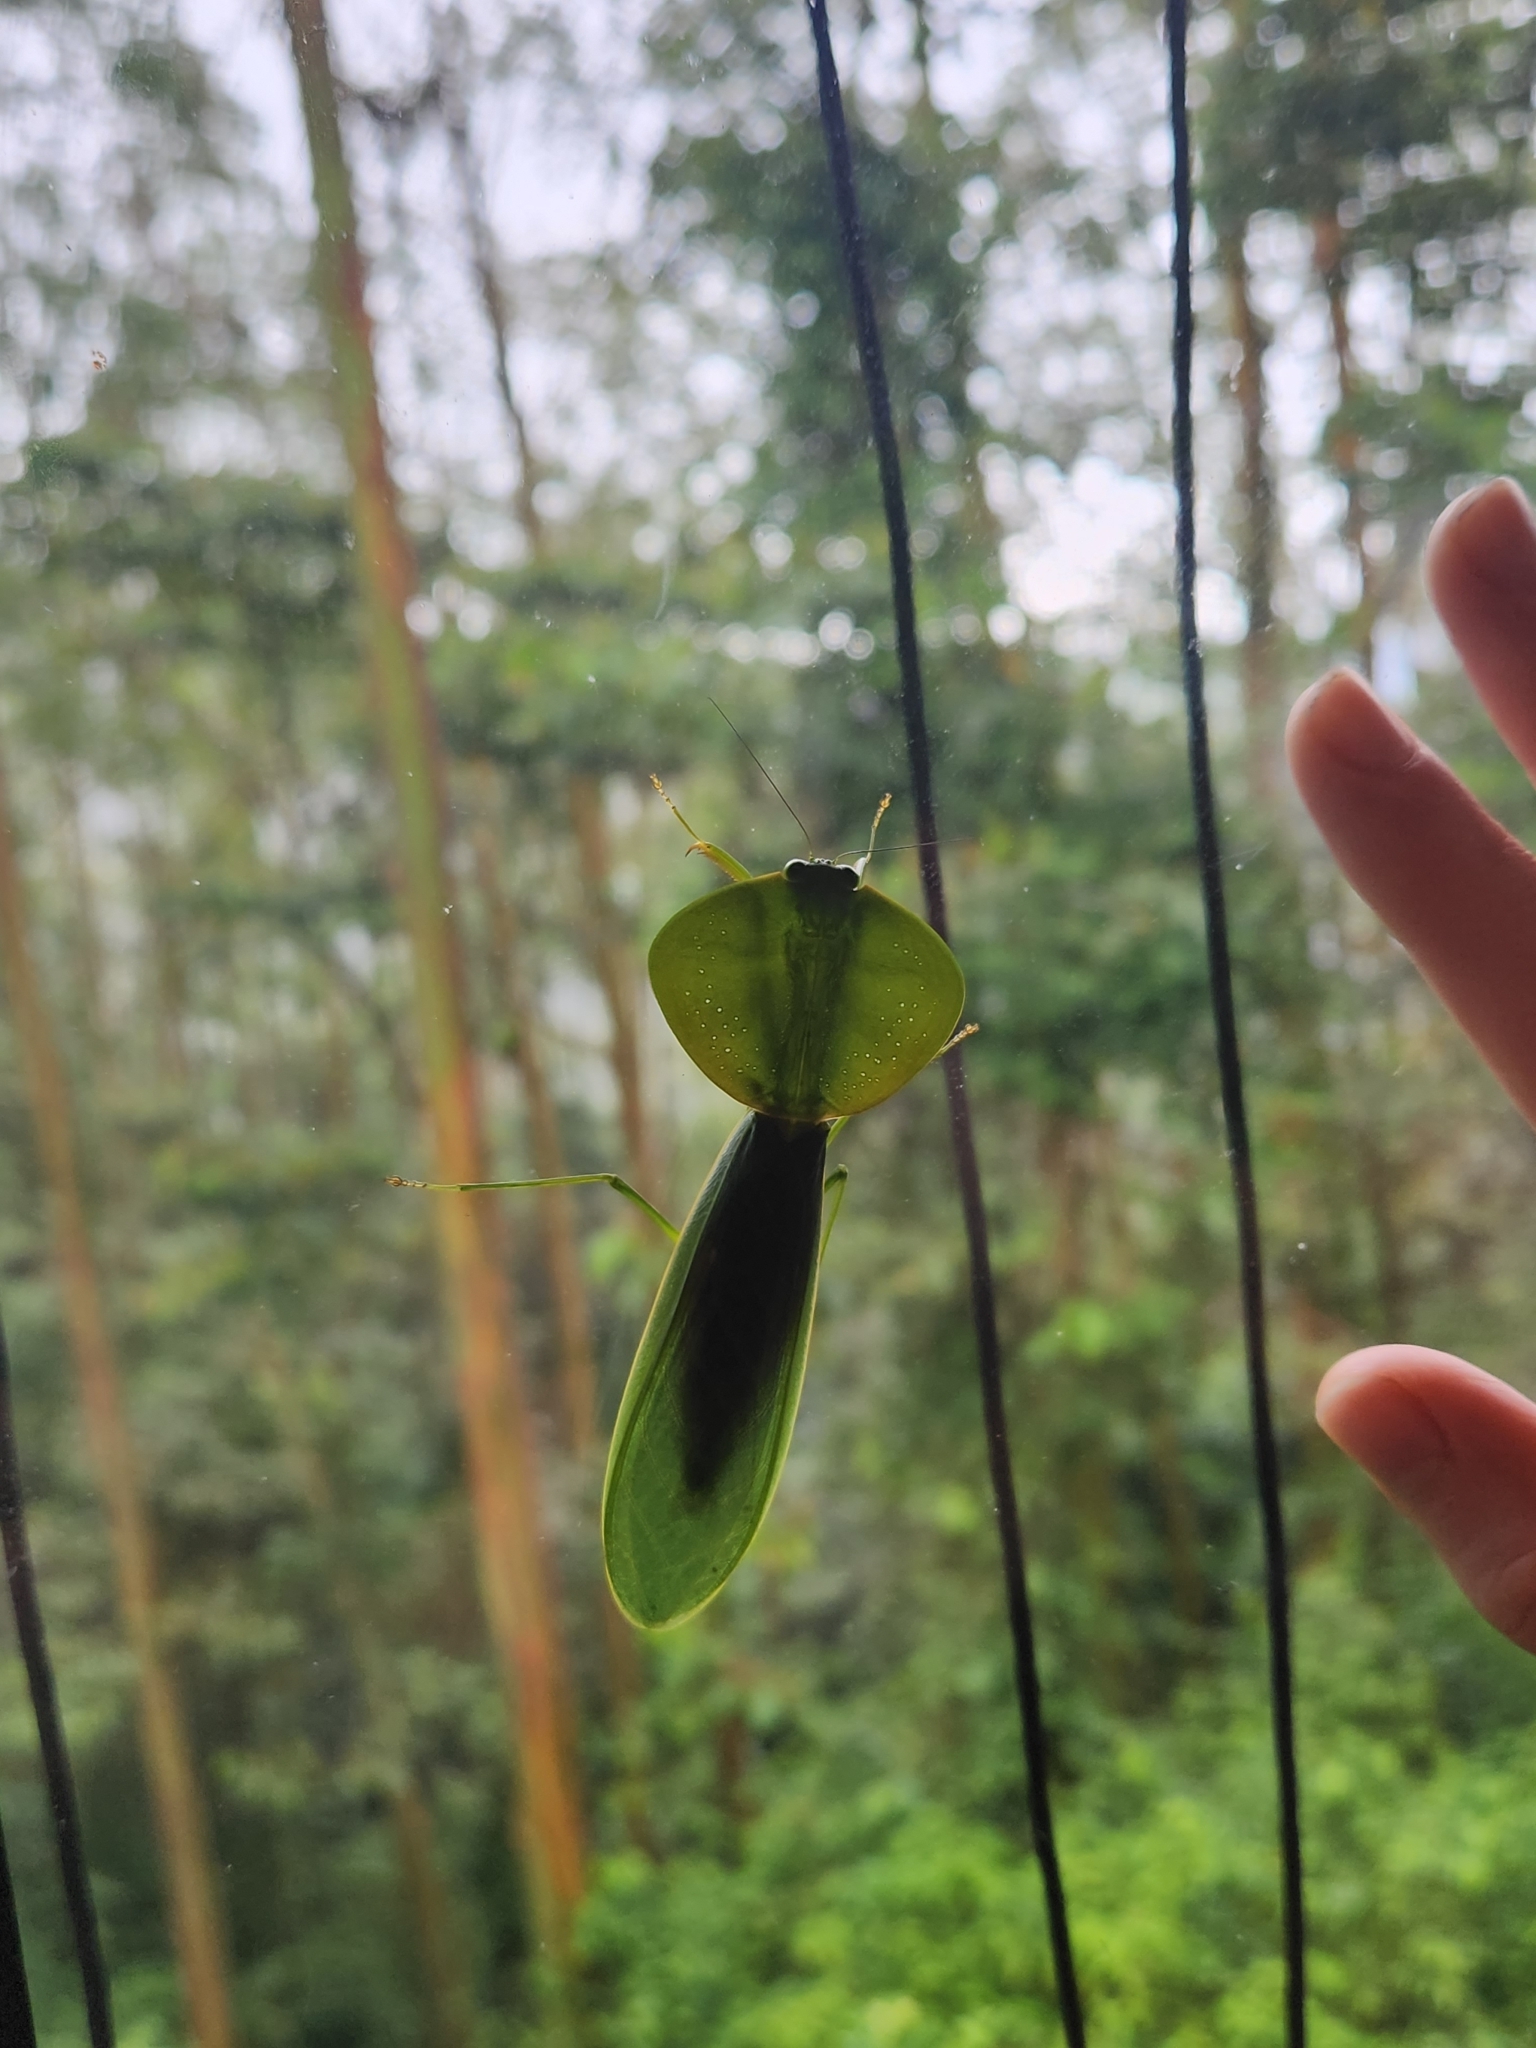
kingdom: Animalia
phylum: Arthropoda
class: Insecta
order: Mantodea
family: Mantidae
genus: Choeradodis
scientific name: Choeradodis rhombicollis
